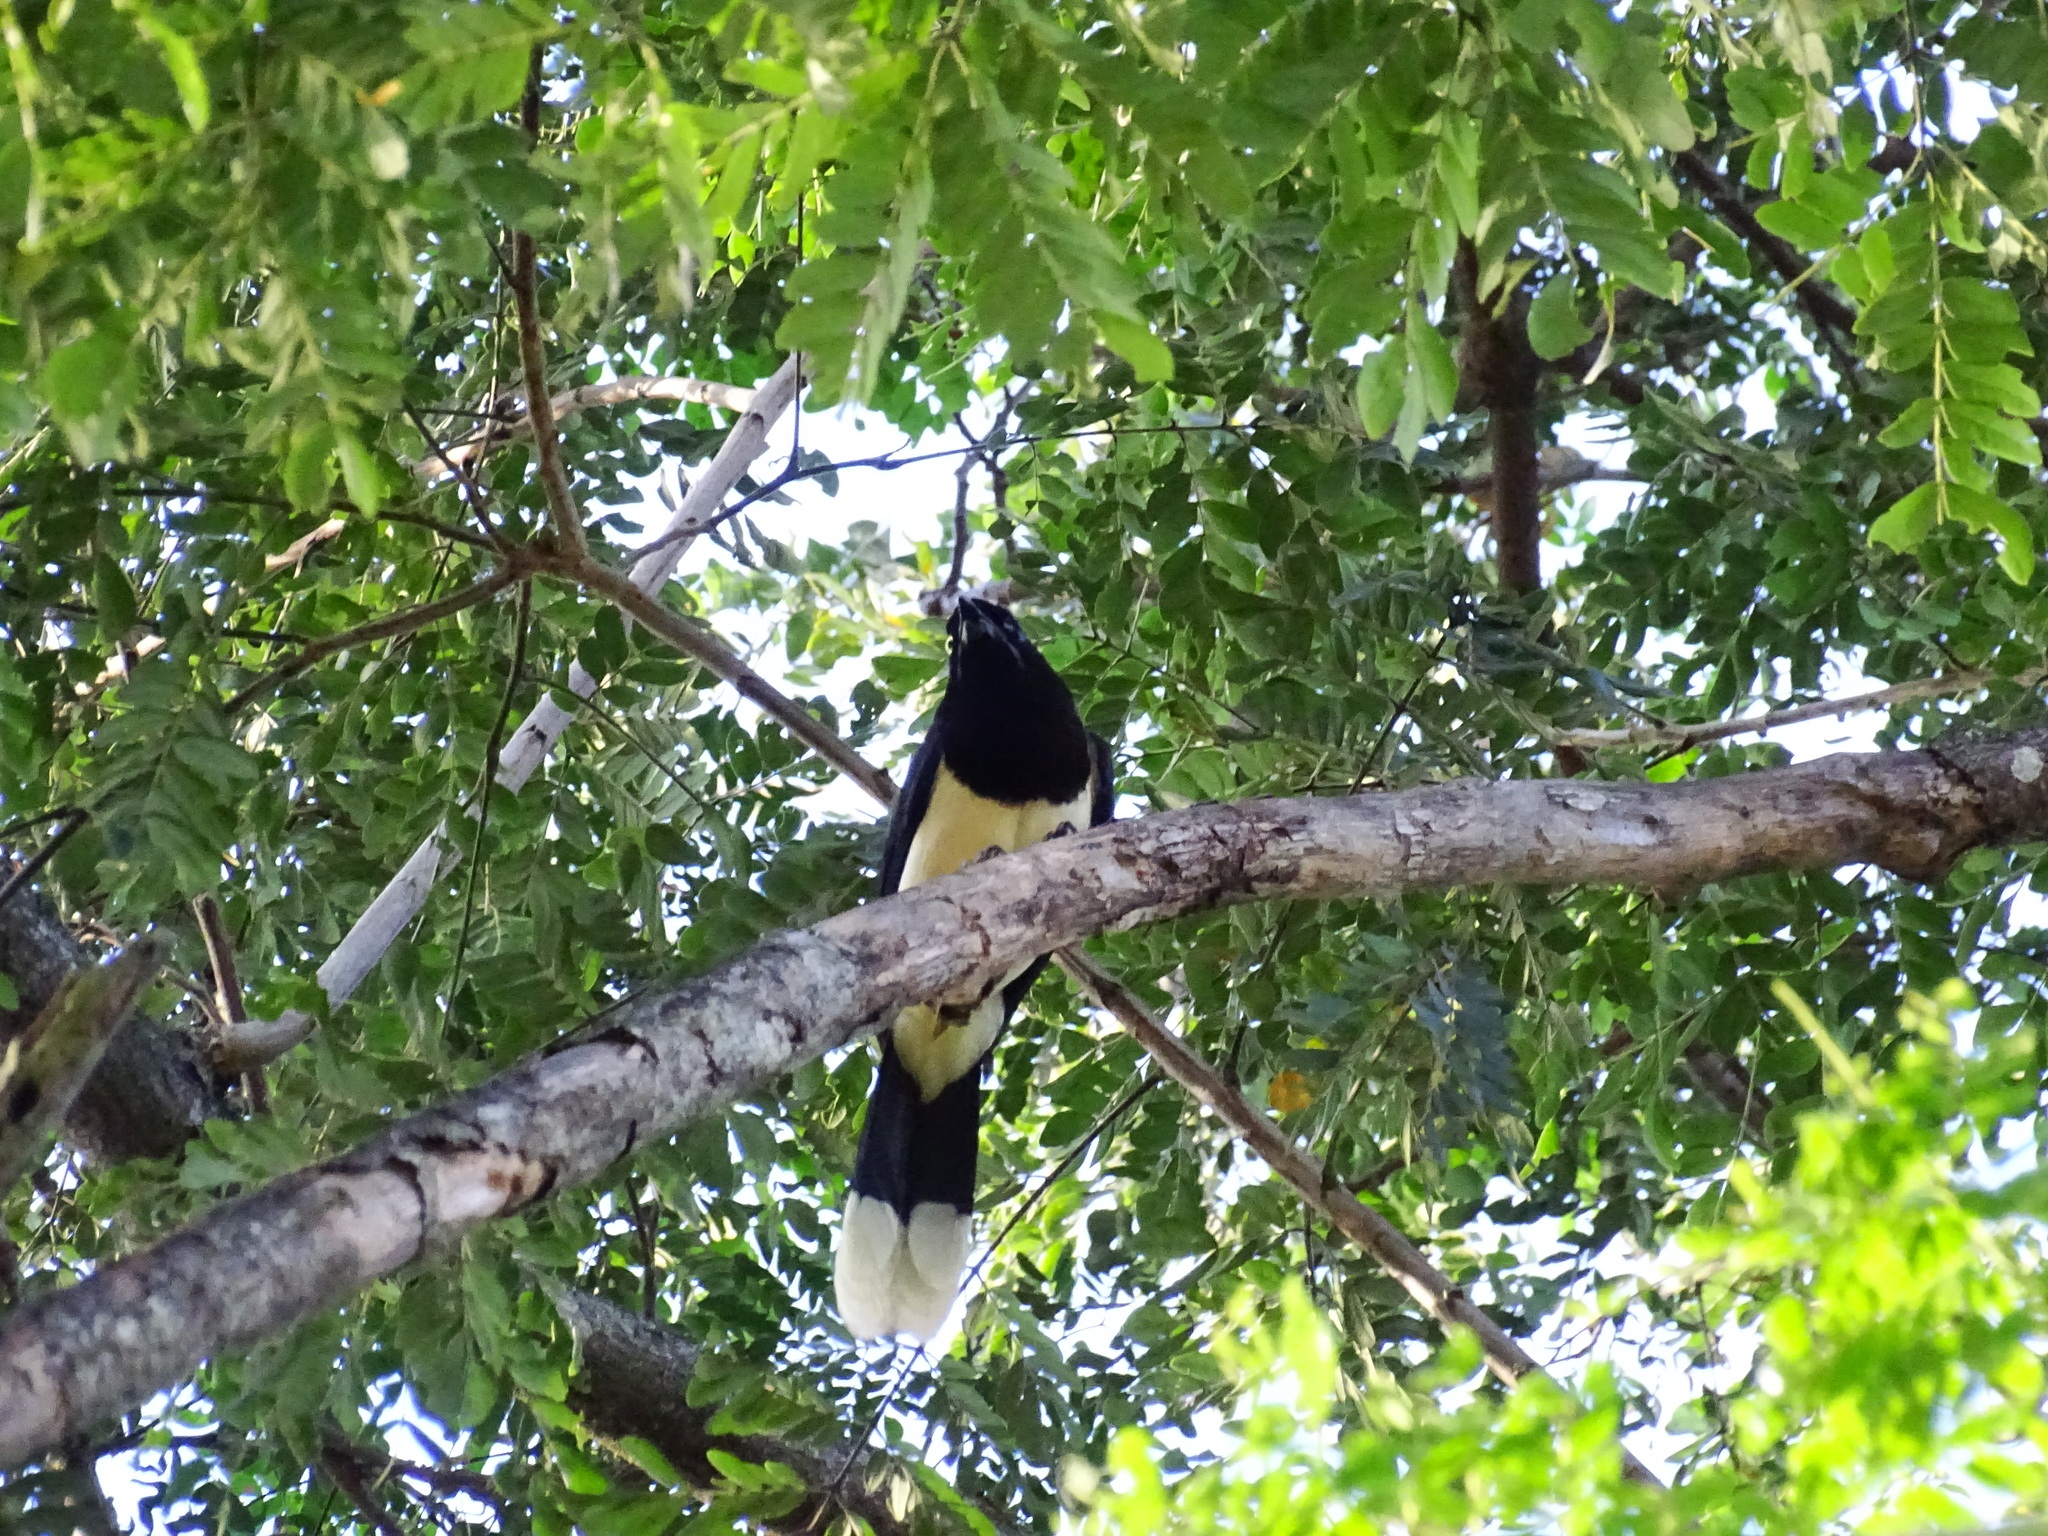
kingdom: Animalia
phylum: Chordata
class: Aves
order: Passeriformes
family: Corvidae
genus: Cyanocorax
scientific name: Cyanocorax affinis
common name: Black-chested jay
